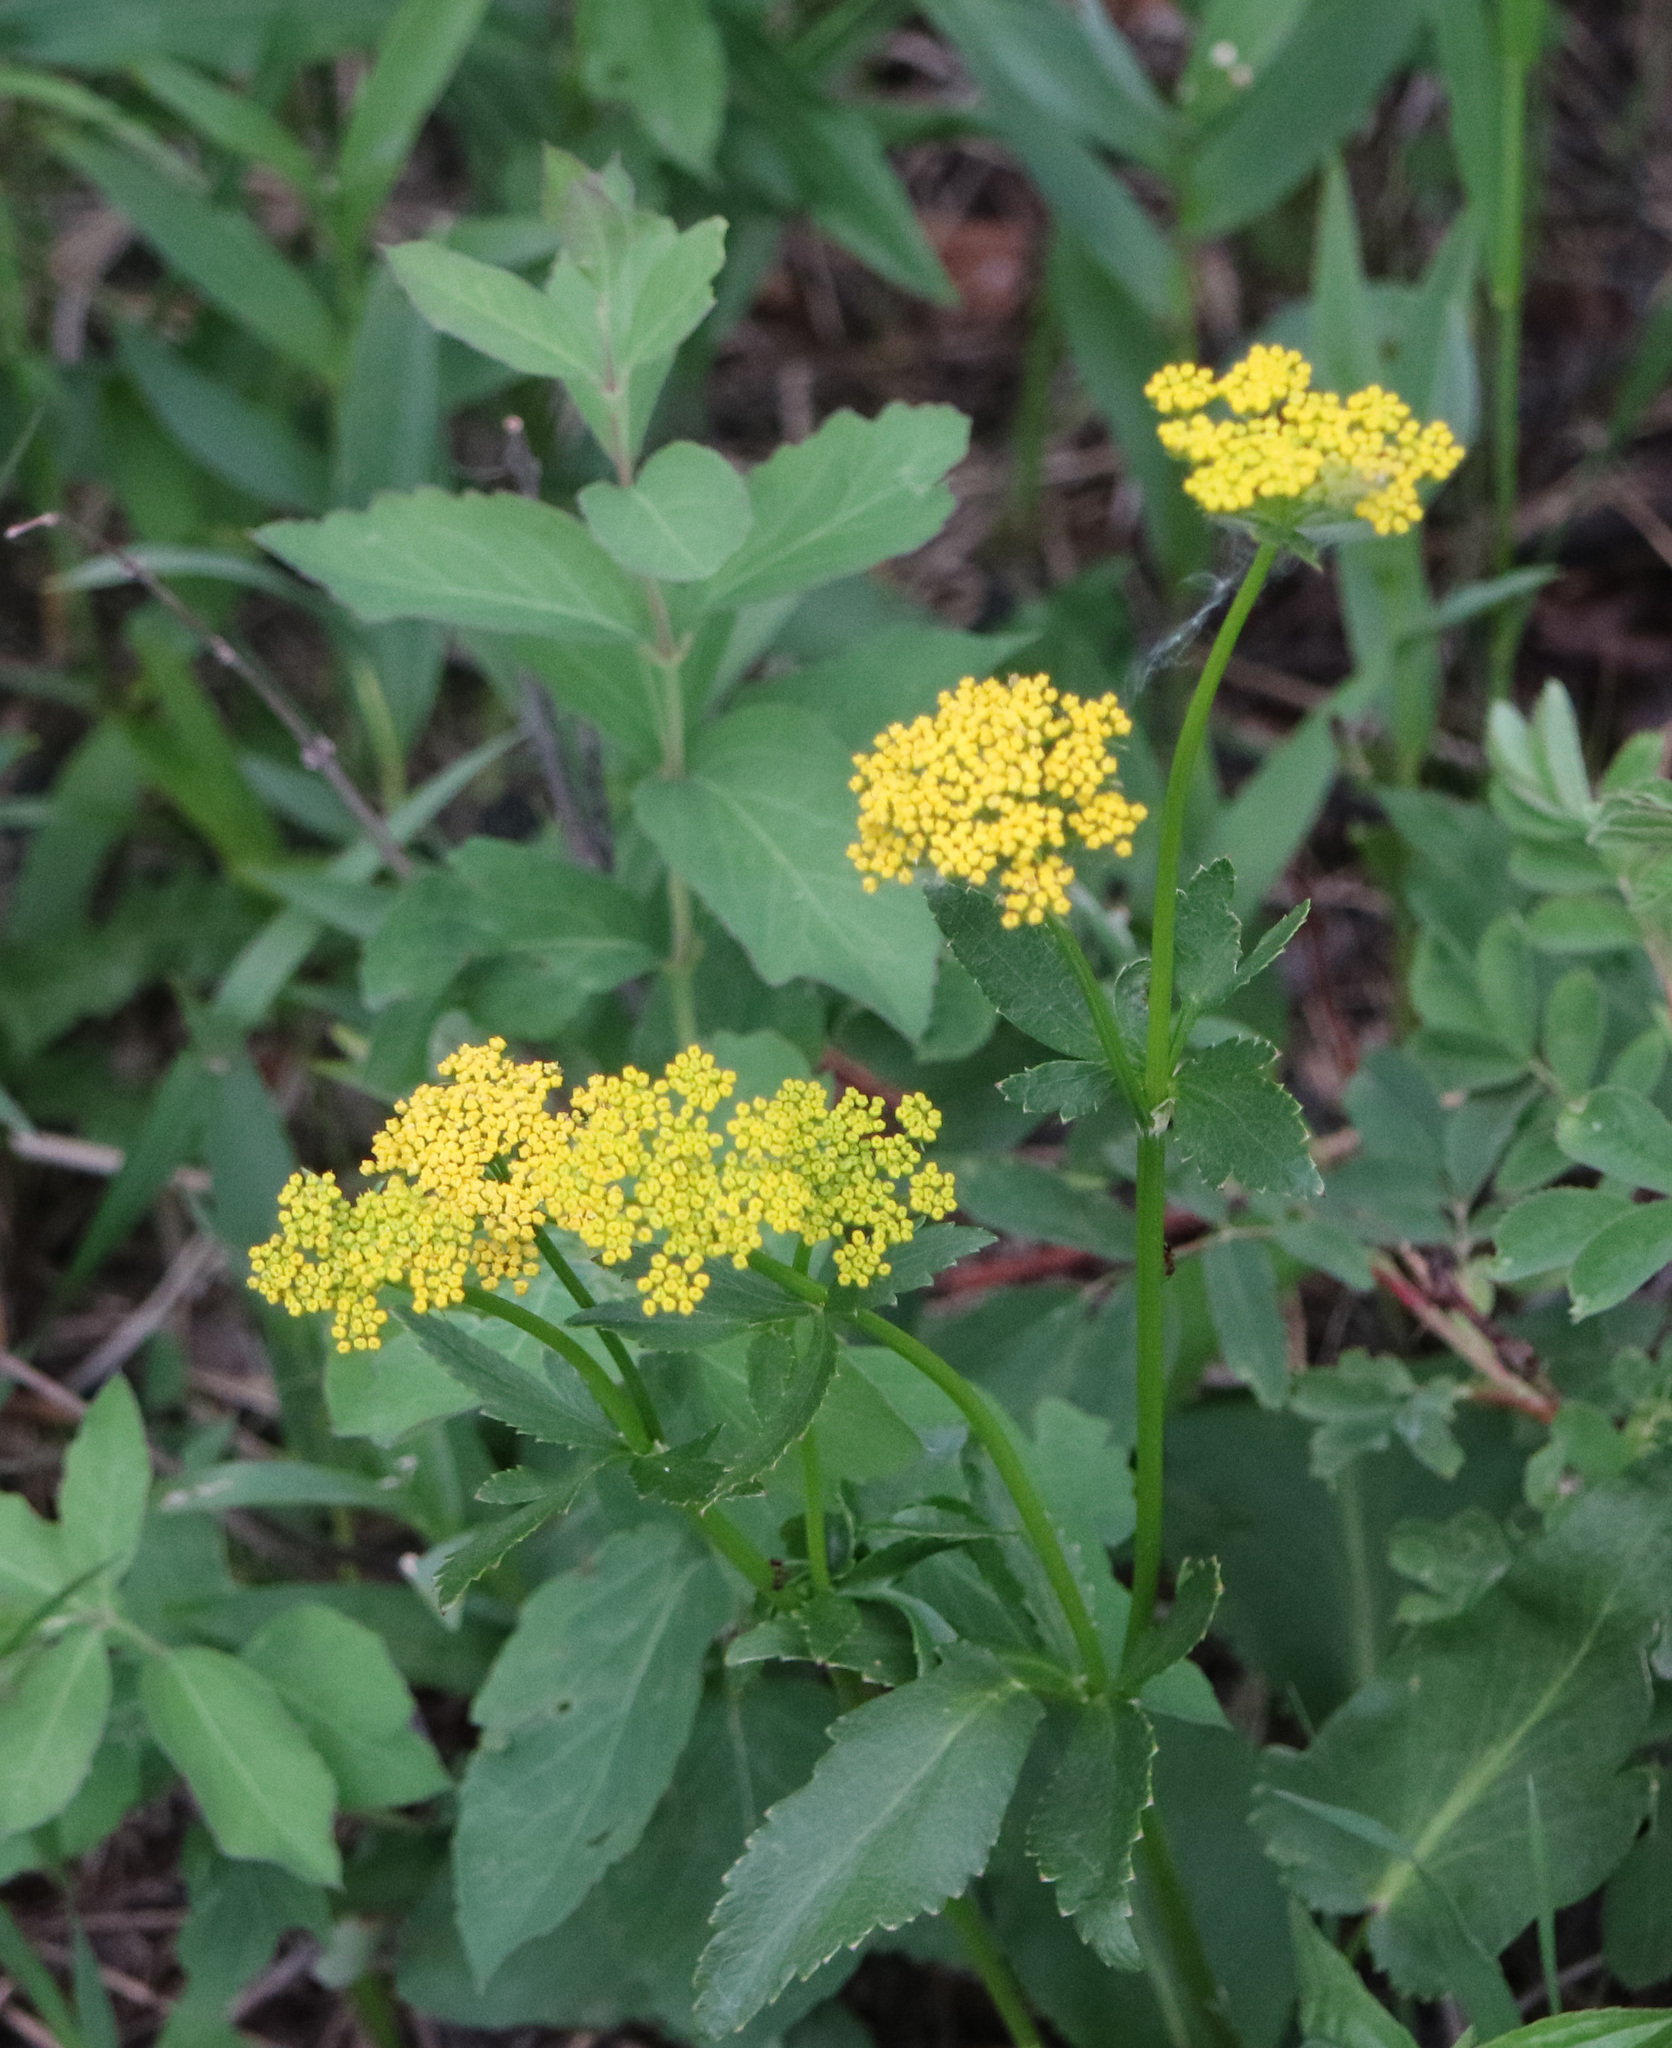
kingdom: Plantae
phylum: Tracheophyta
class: Magnoliopsida
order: Apiales
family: Apiaceae
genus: Zizia
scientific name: Zizia aptera
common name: Heart-leaved alexanders
